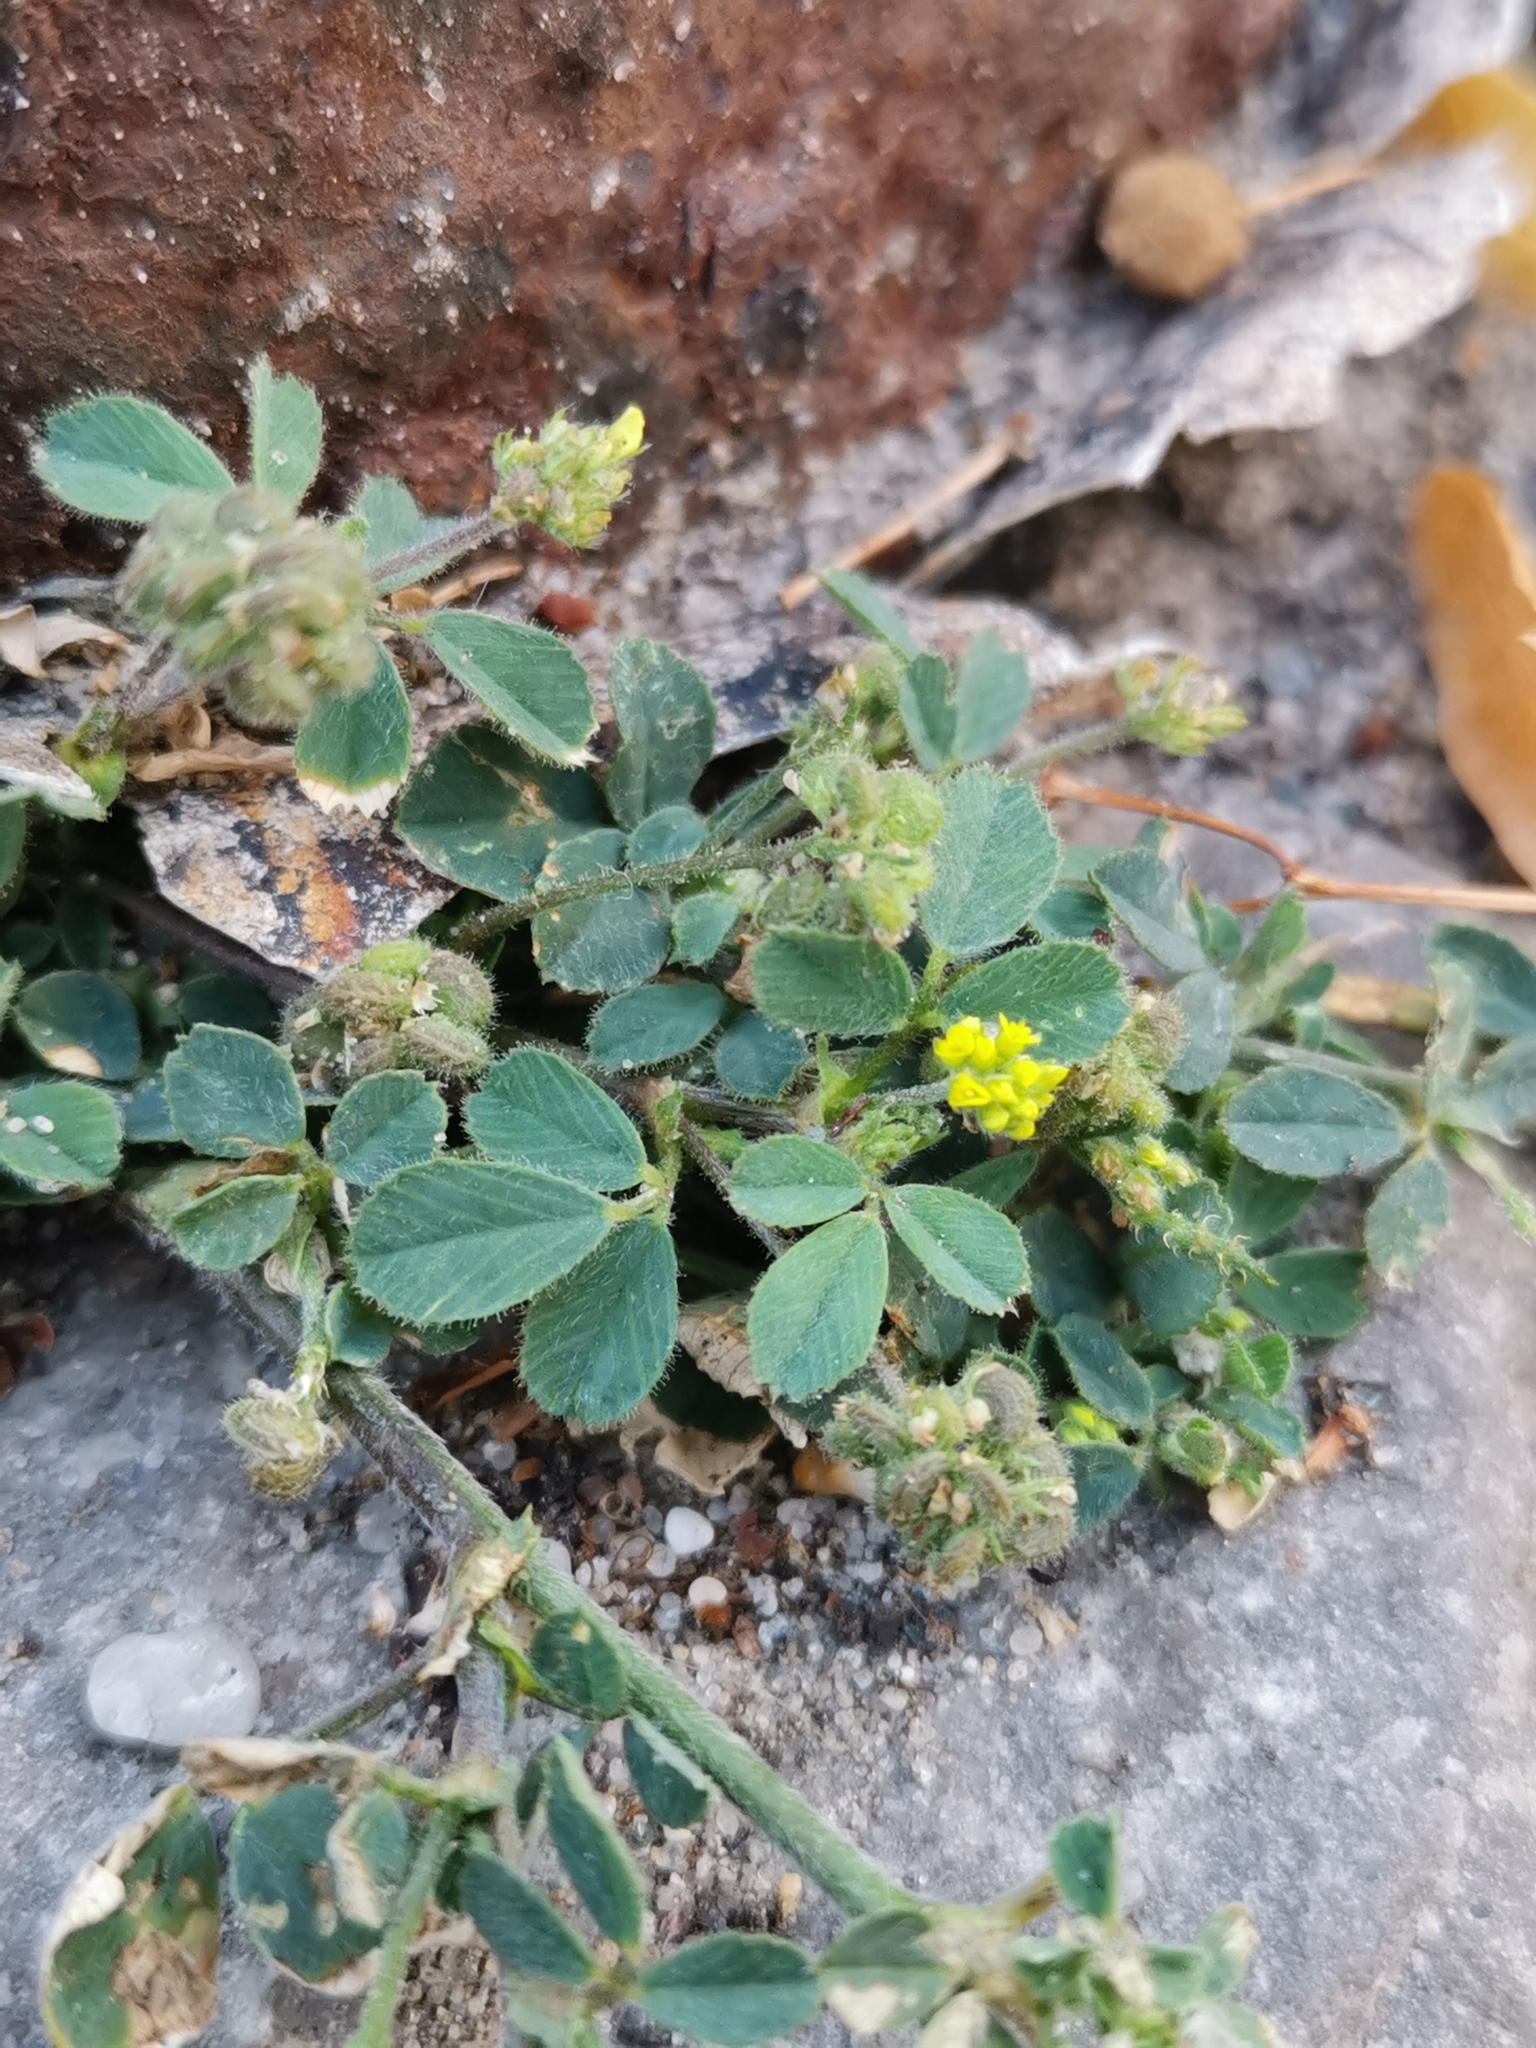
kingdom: Plantae
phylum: Tracheophyta
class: Magnoliopsida
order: Fabales
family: Fabaceae
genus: Medicago
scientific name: Medicago lupulina
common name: Black medick
